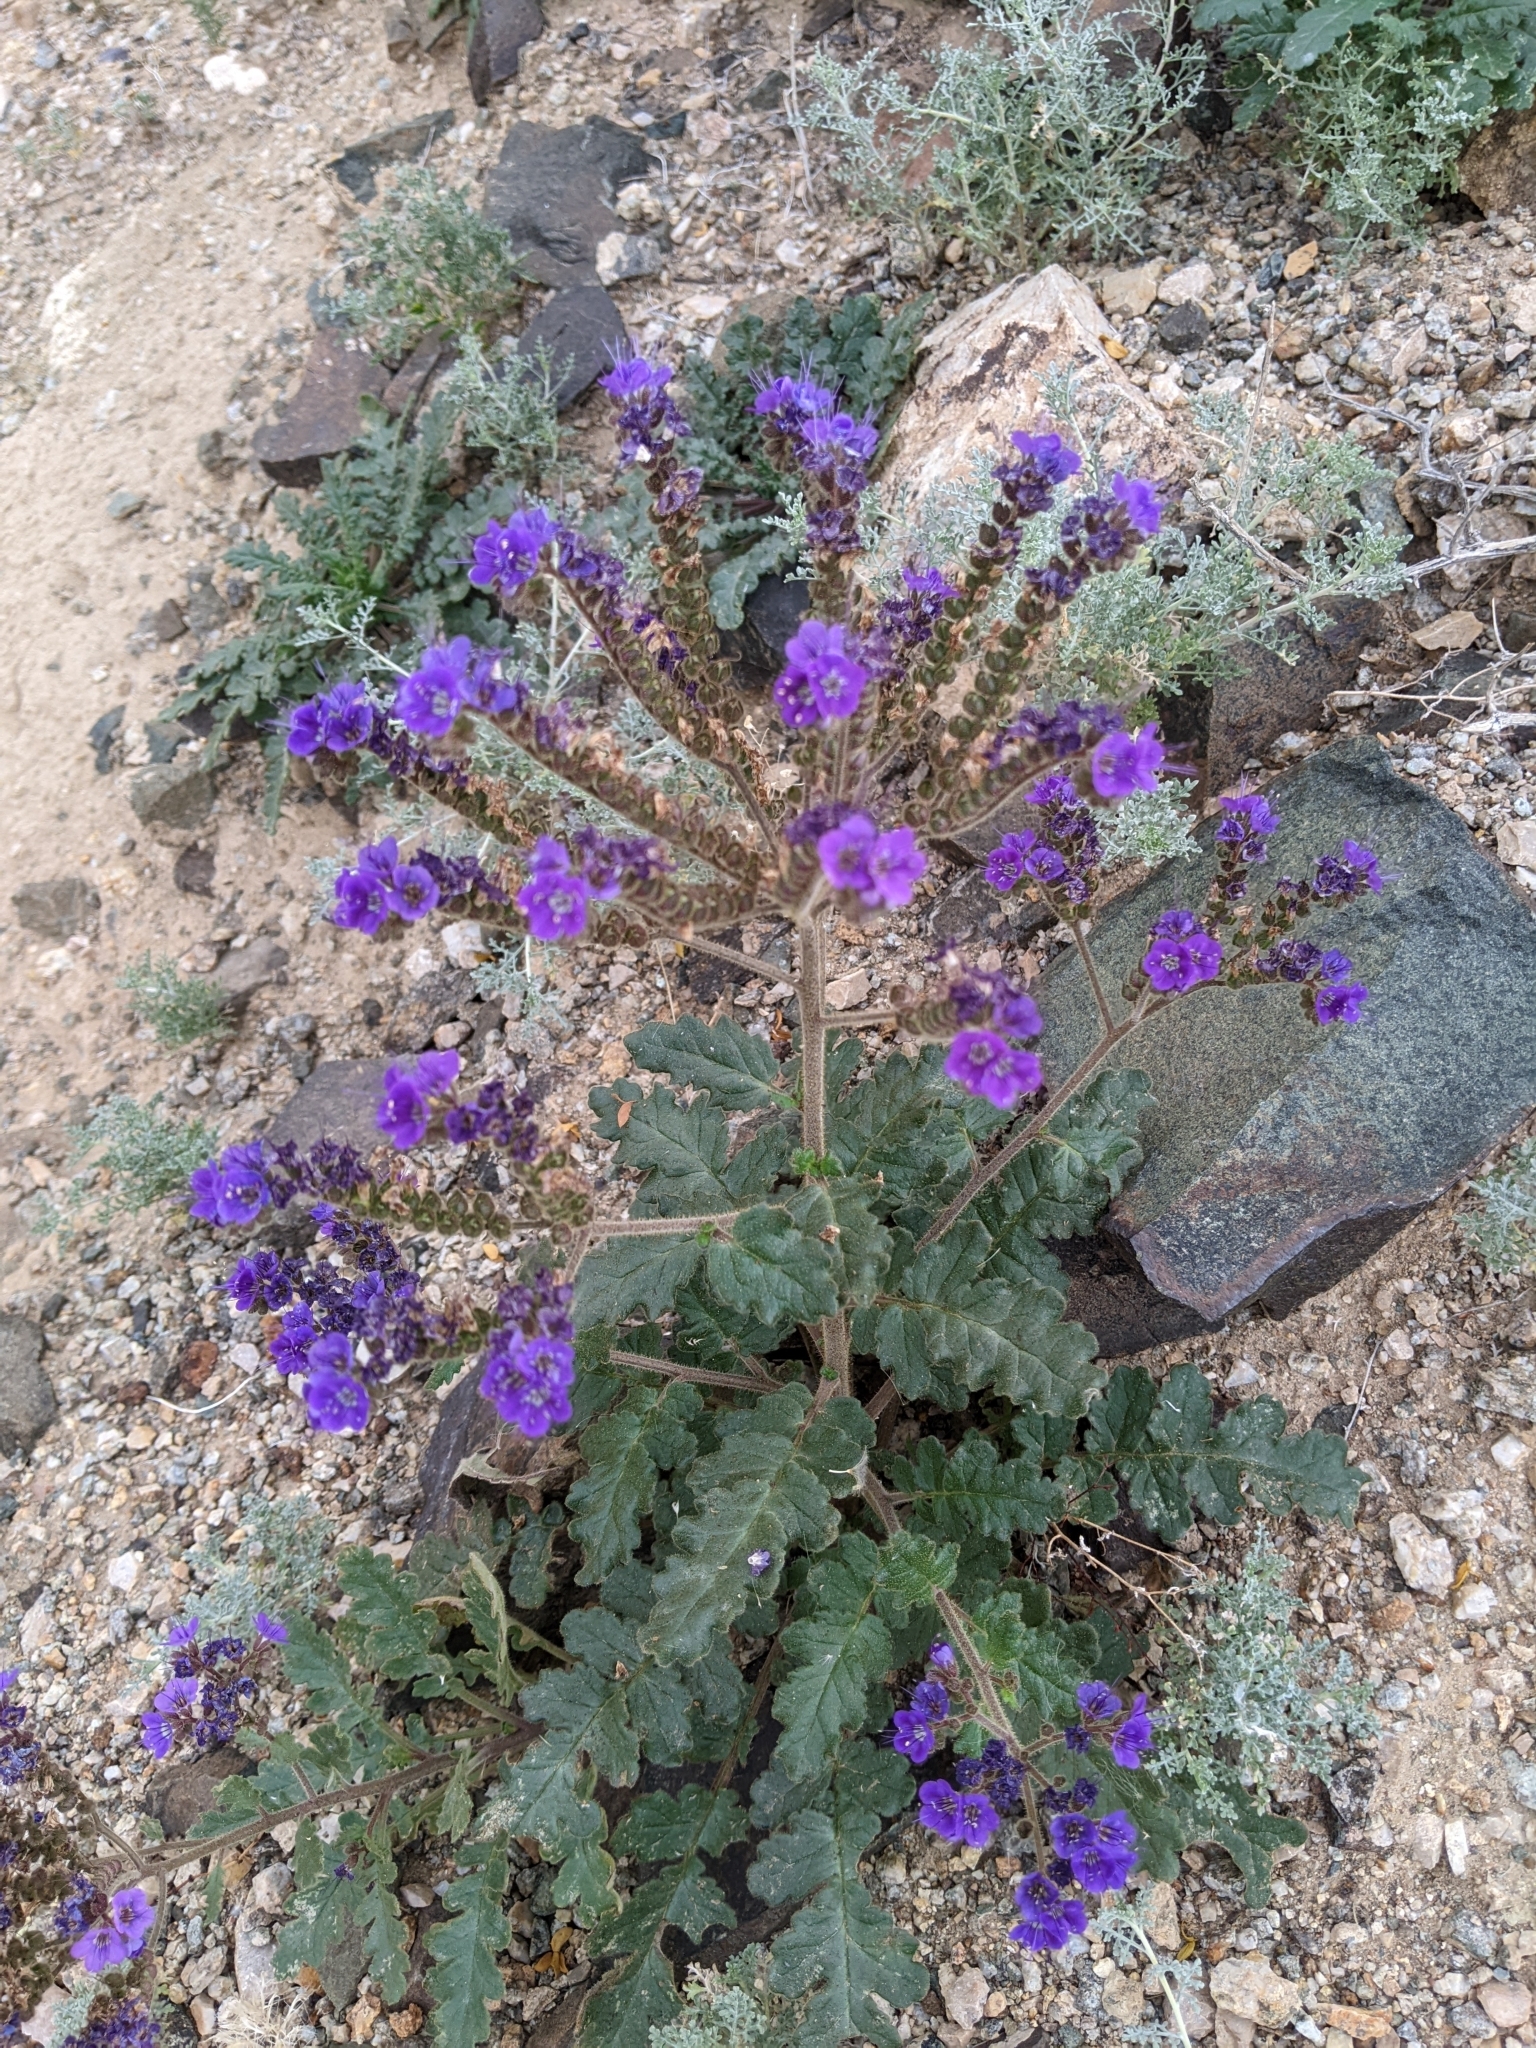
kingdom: Plantae
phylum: Tracheophyta
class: Magnoliopsida
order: Boraginales
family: Hydrophyllaceae
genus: Phacelia
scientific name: Phacelia crenulata
